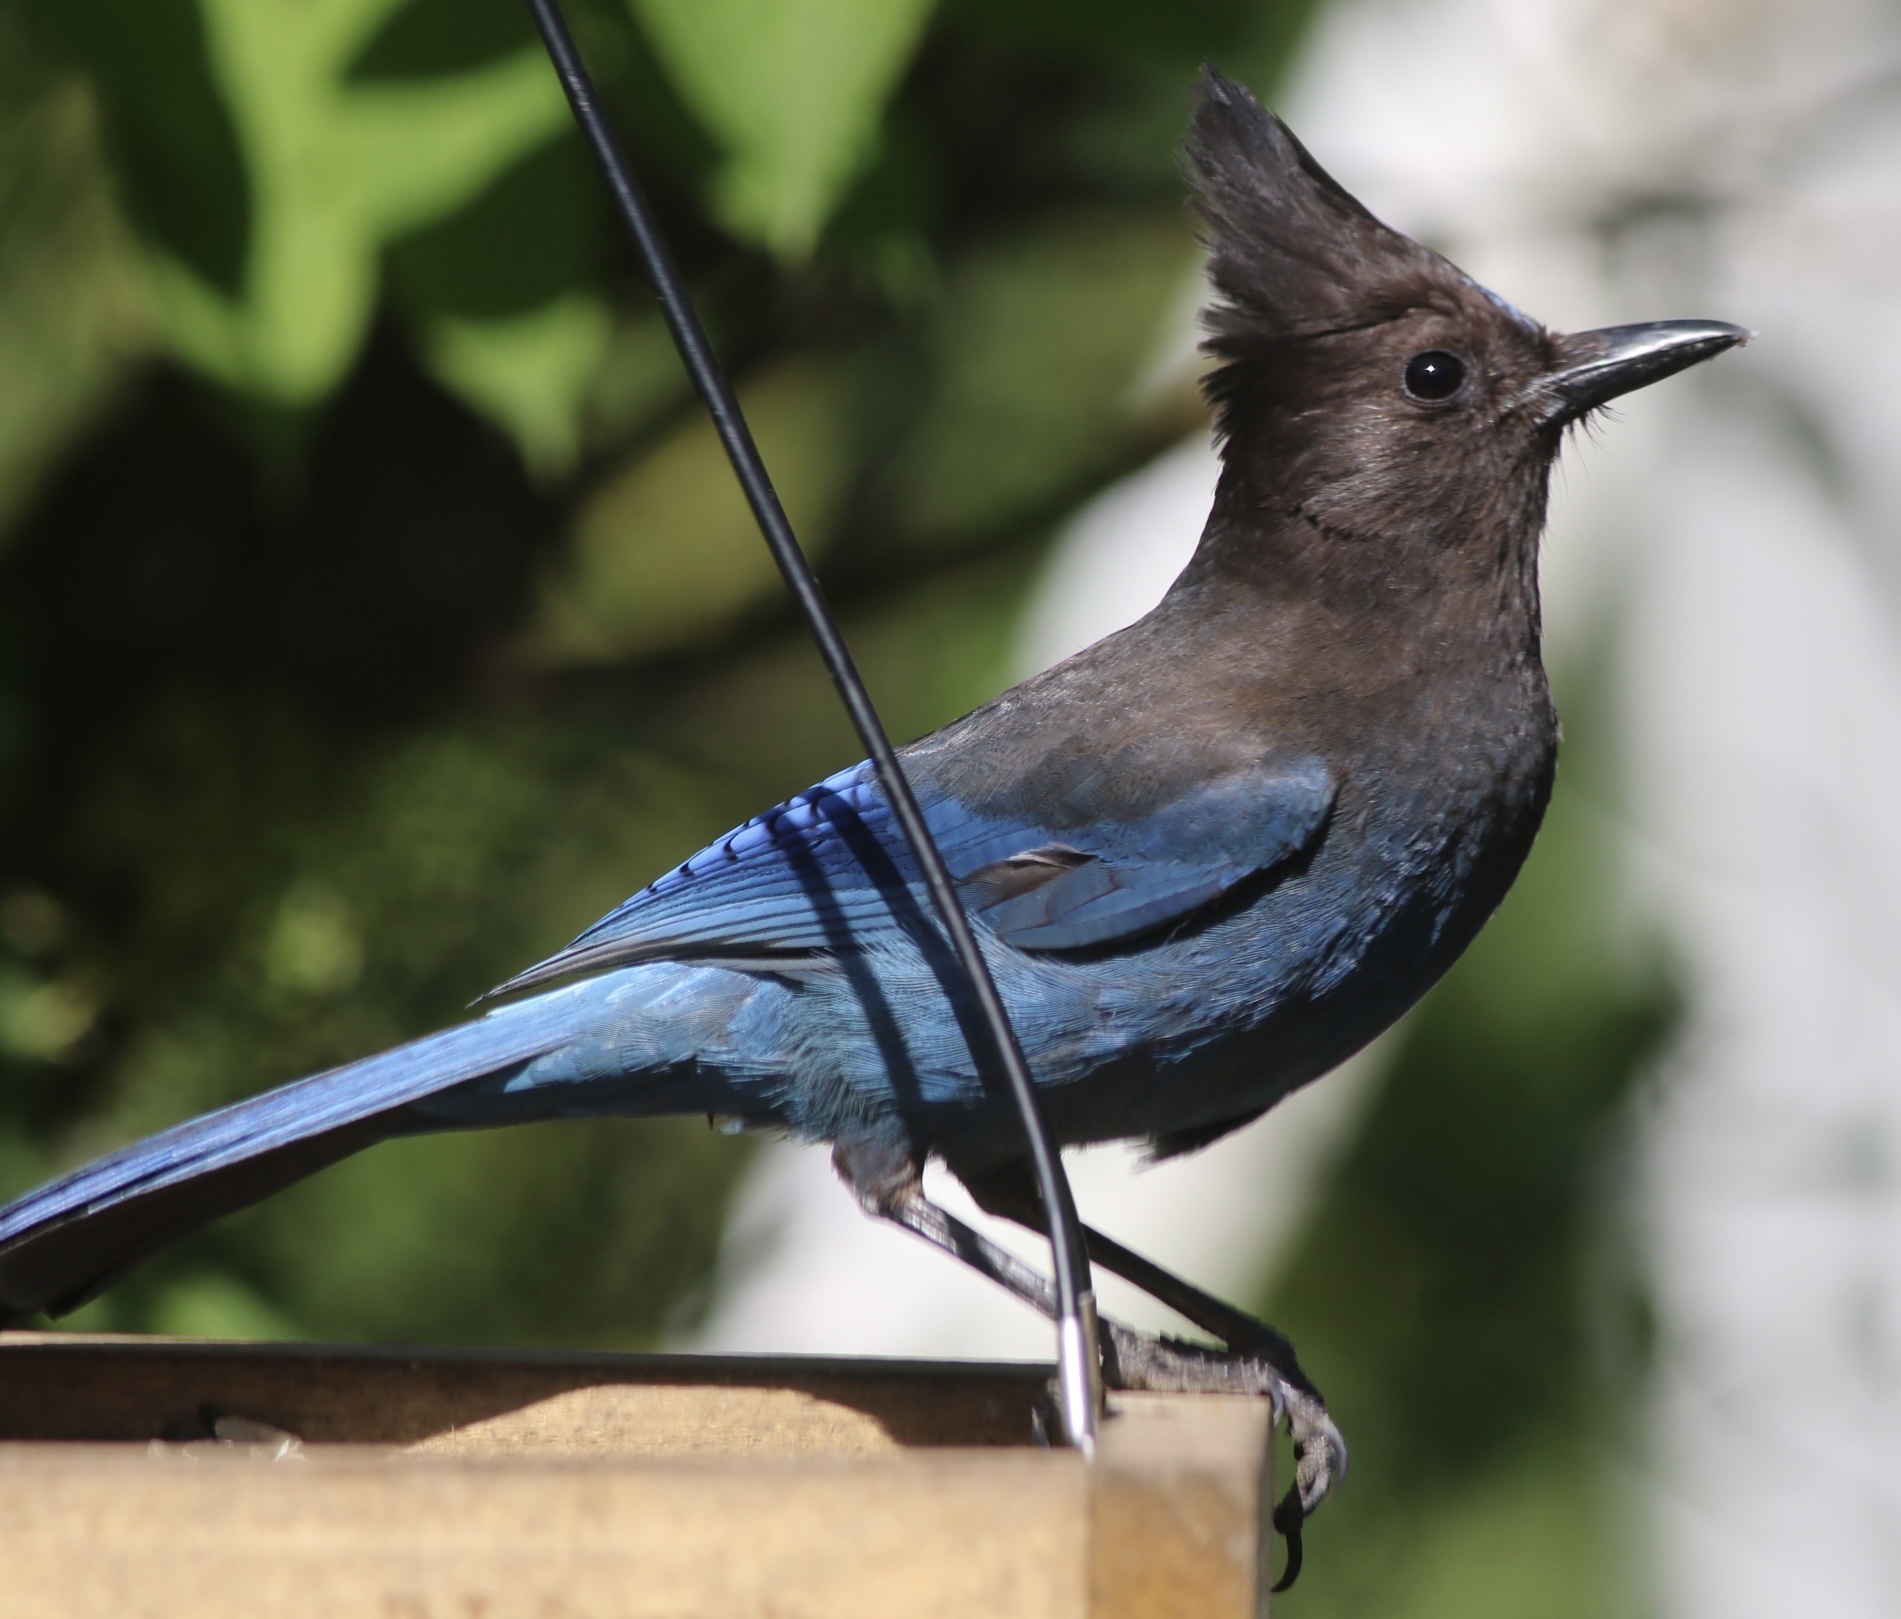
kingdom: Animalia
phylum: Chordata
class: Aves
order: Passeriformes
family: Corvidae
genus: Cyanocitta
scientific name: Cyanocitta stelleri
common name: Steller's jay
